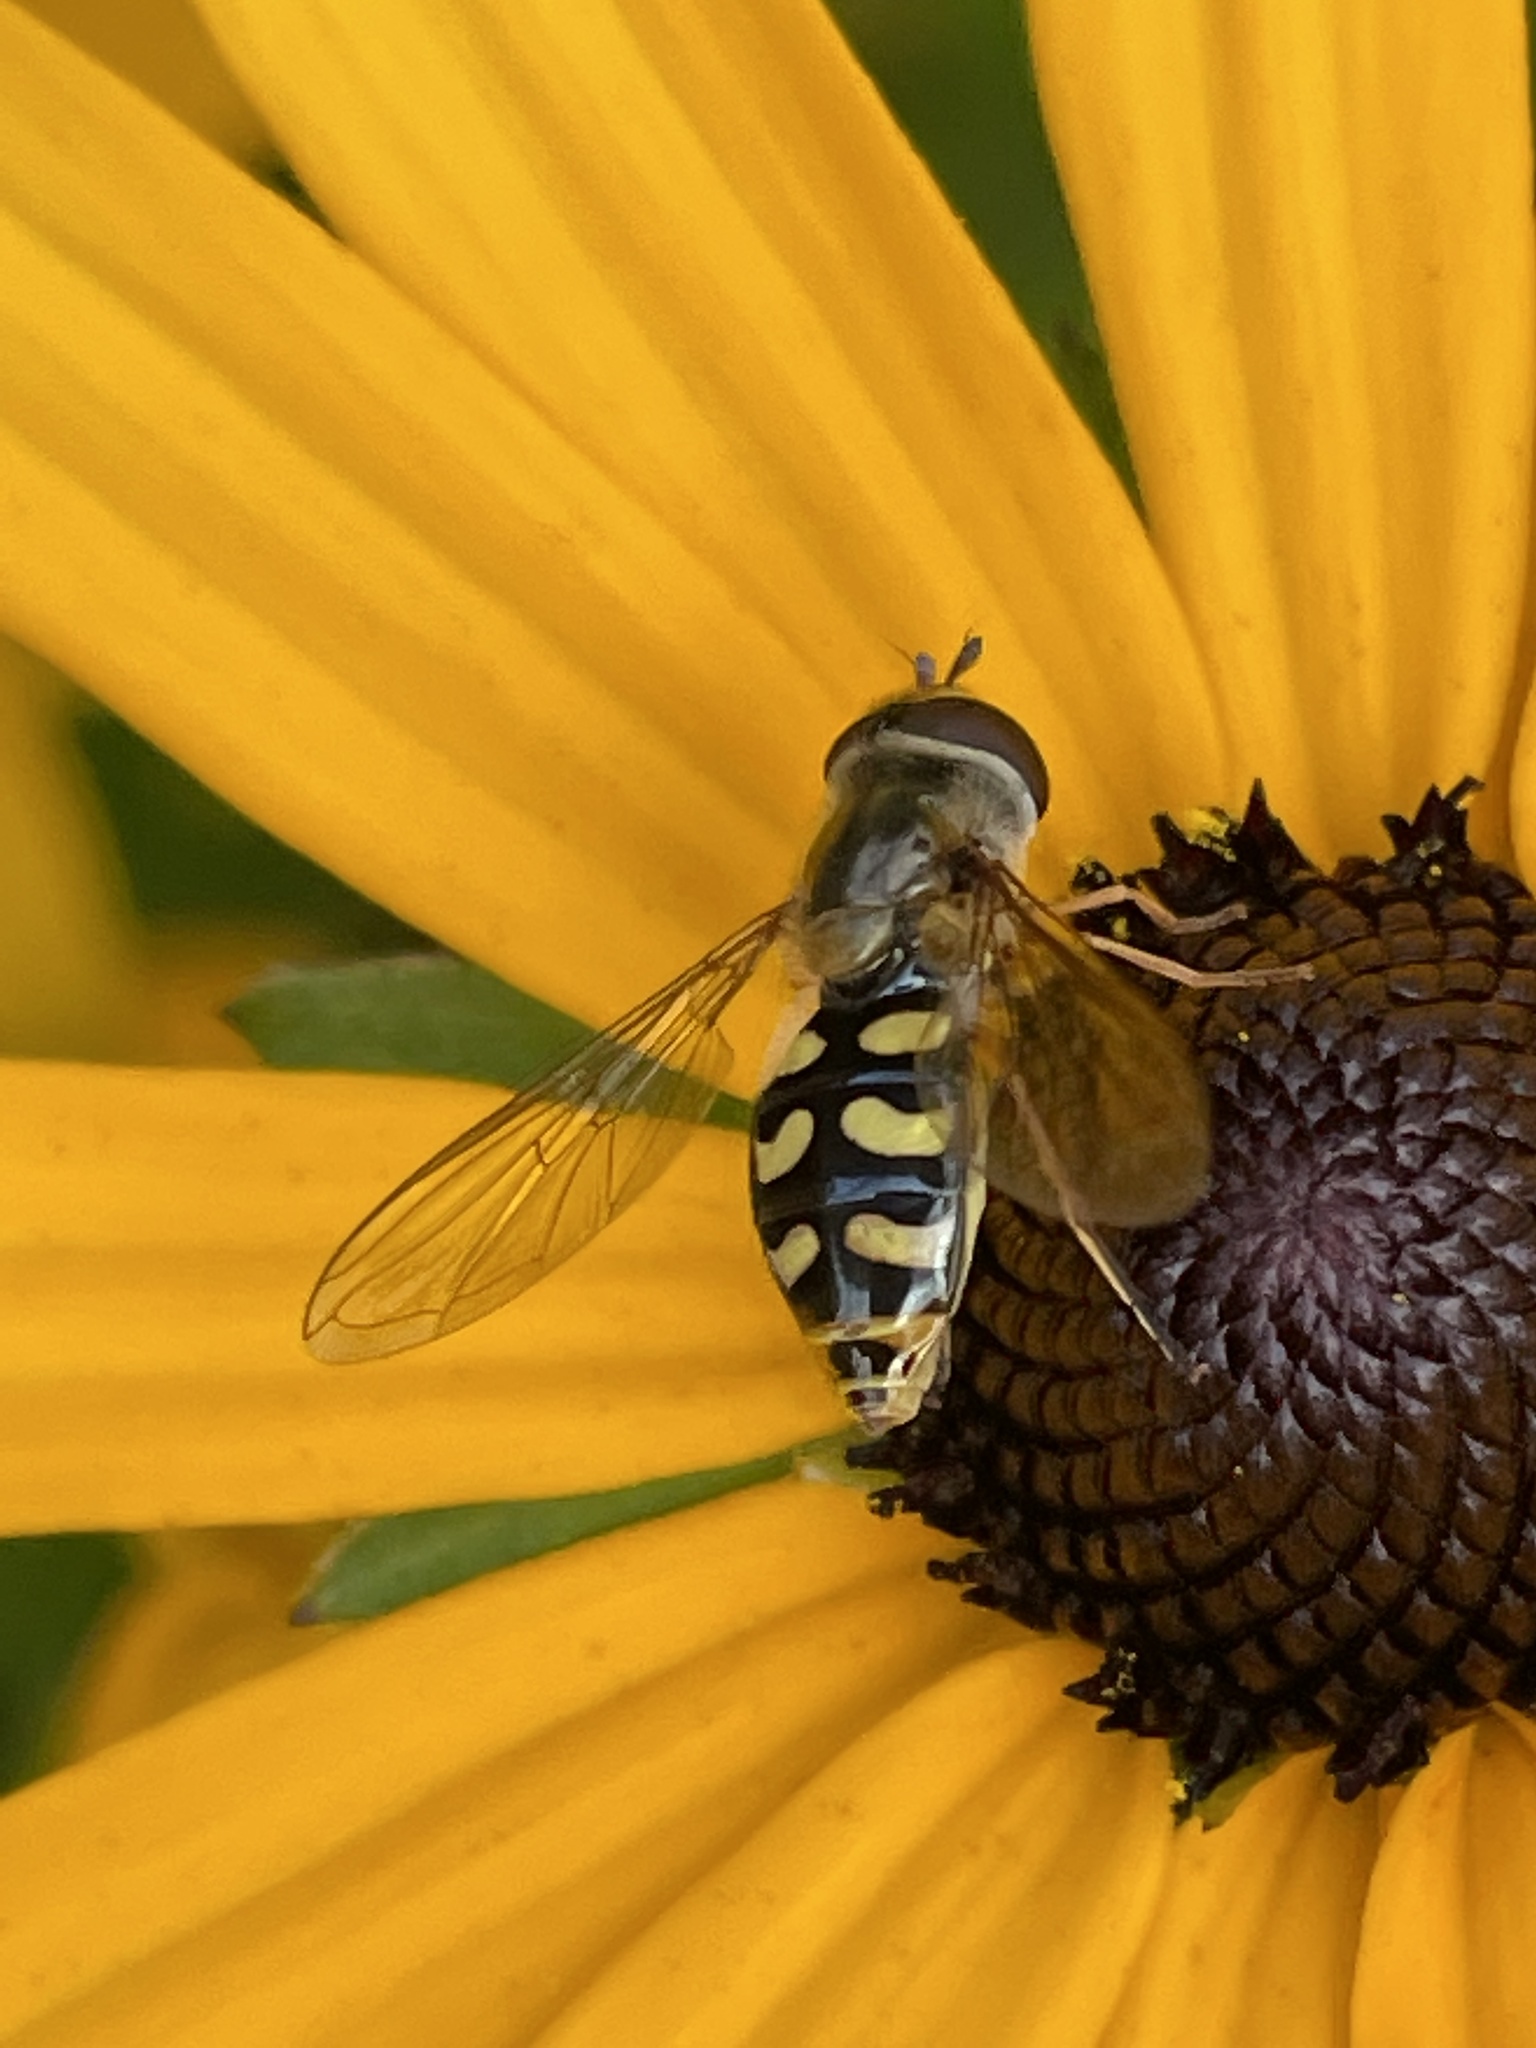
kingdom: Animalia
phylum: Arthropoda
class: Insecta
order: Diptera
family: Syrphidae
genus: Eupeodes
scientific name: Eupeodes luniger
